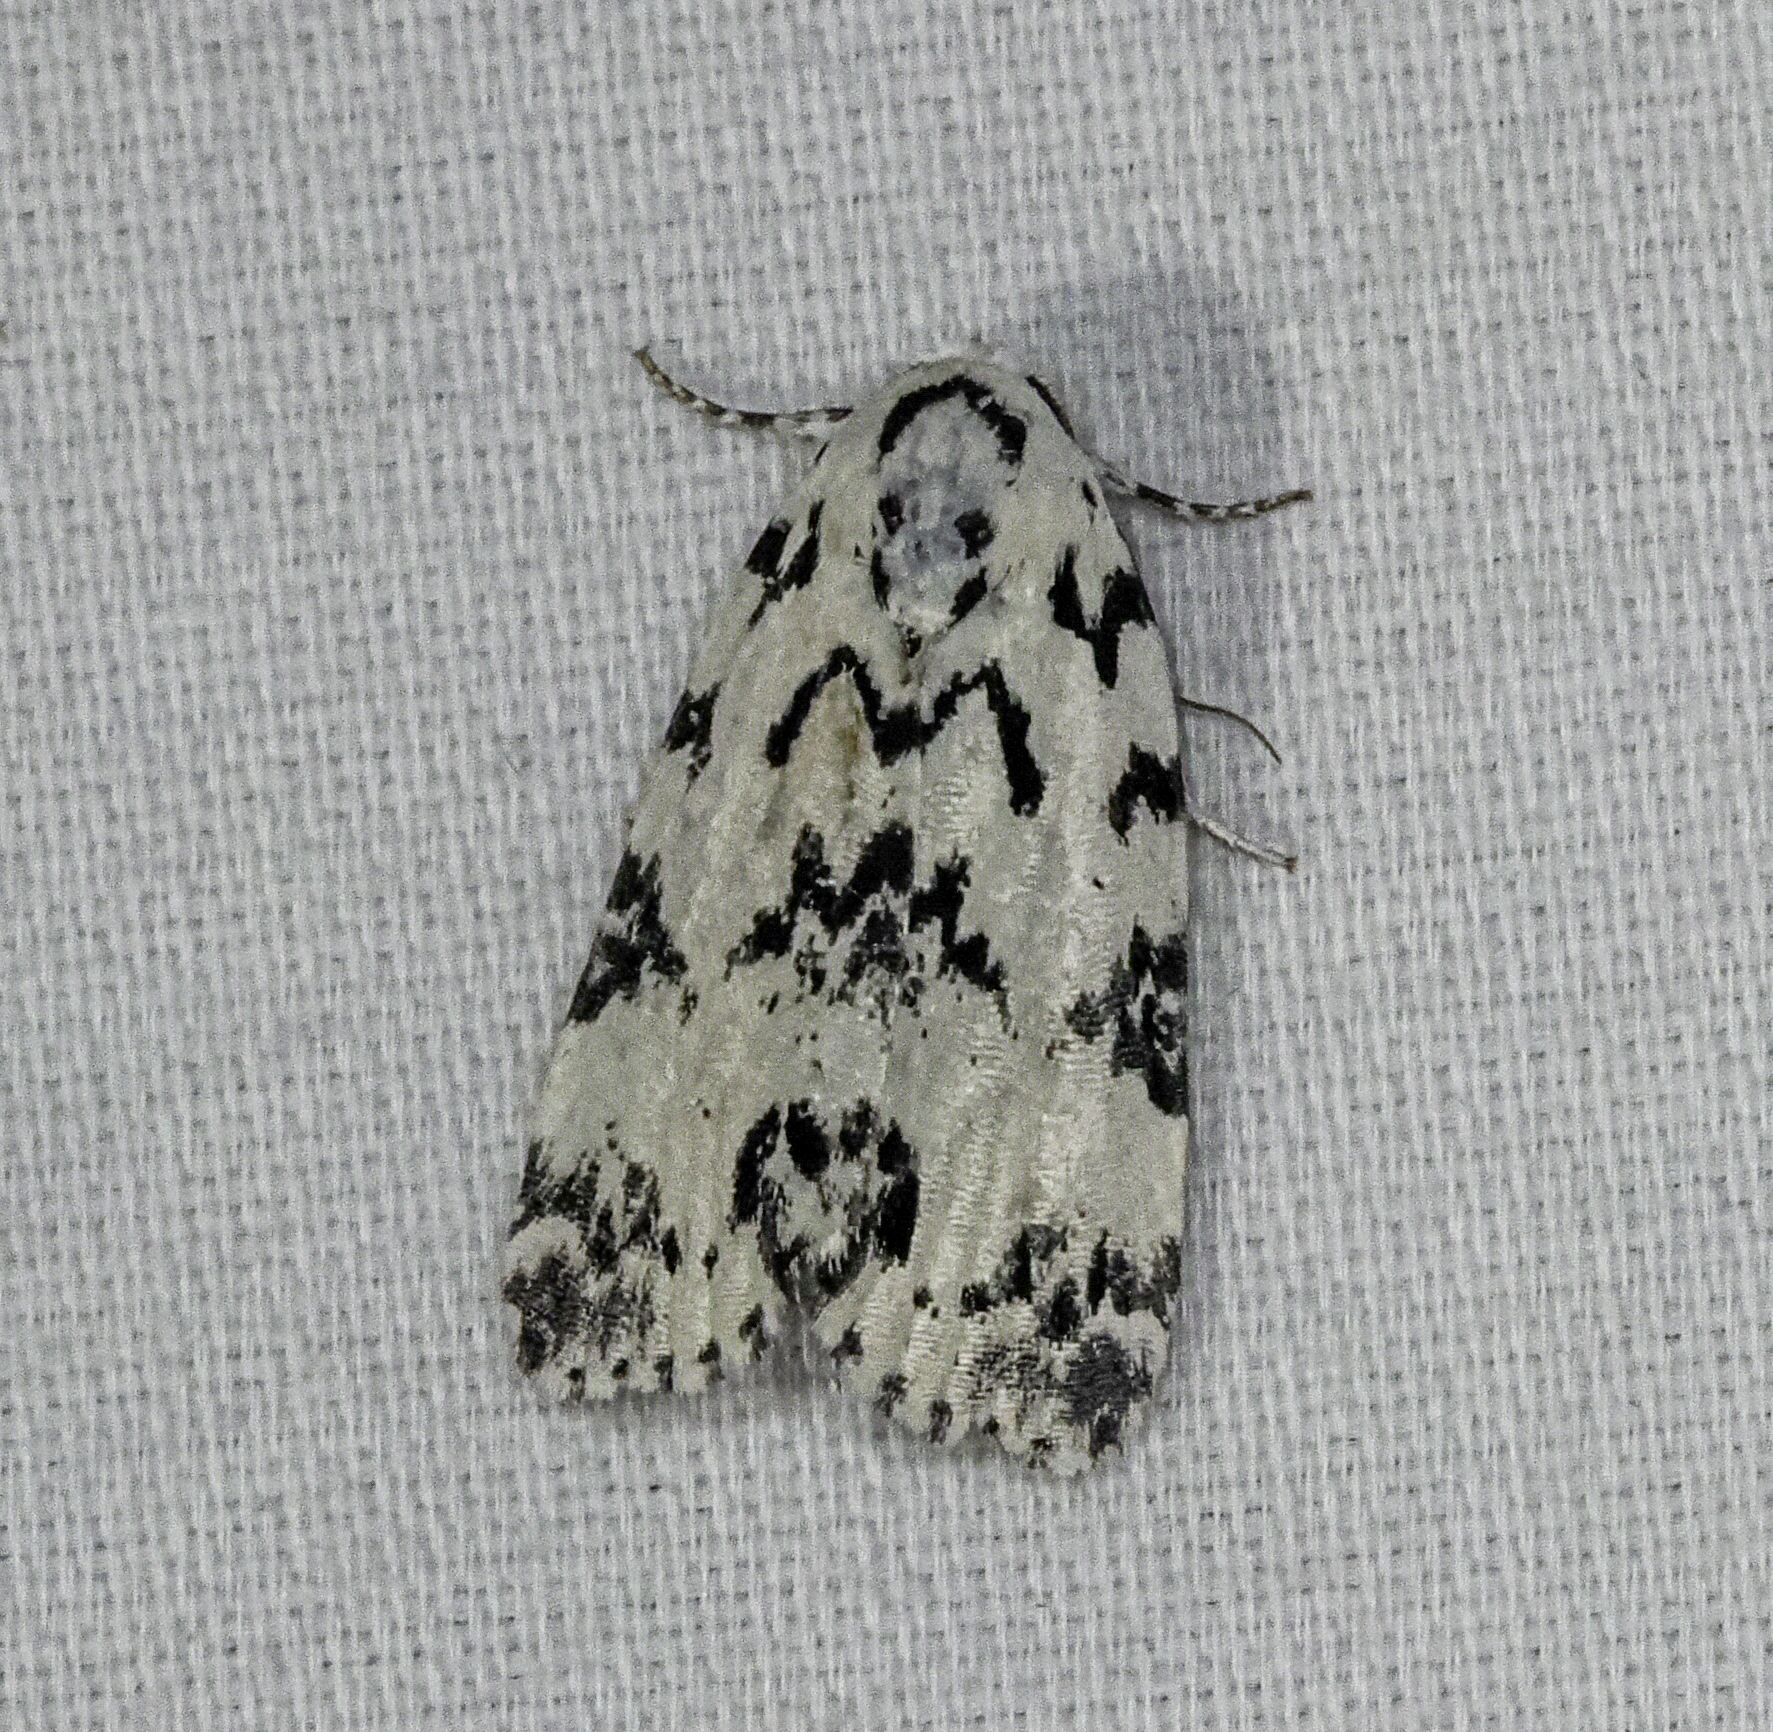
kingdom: Animalia
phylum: Arthropoda
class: Insecta
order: Lepidoptera
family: Noctuidae
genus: Polygrammate
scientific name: Polygrammate hebraeicum
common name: Hebrew moth
